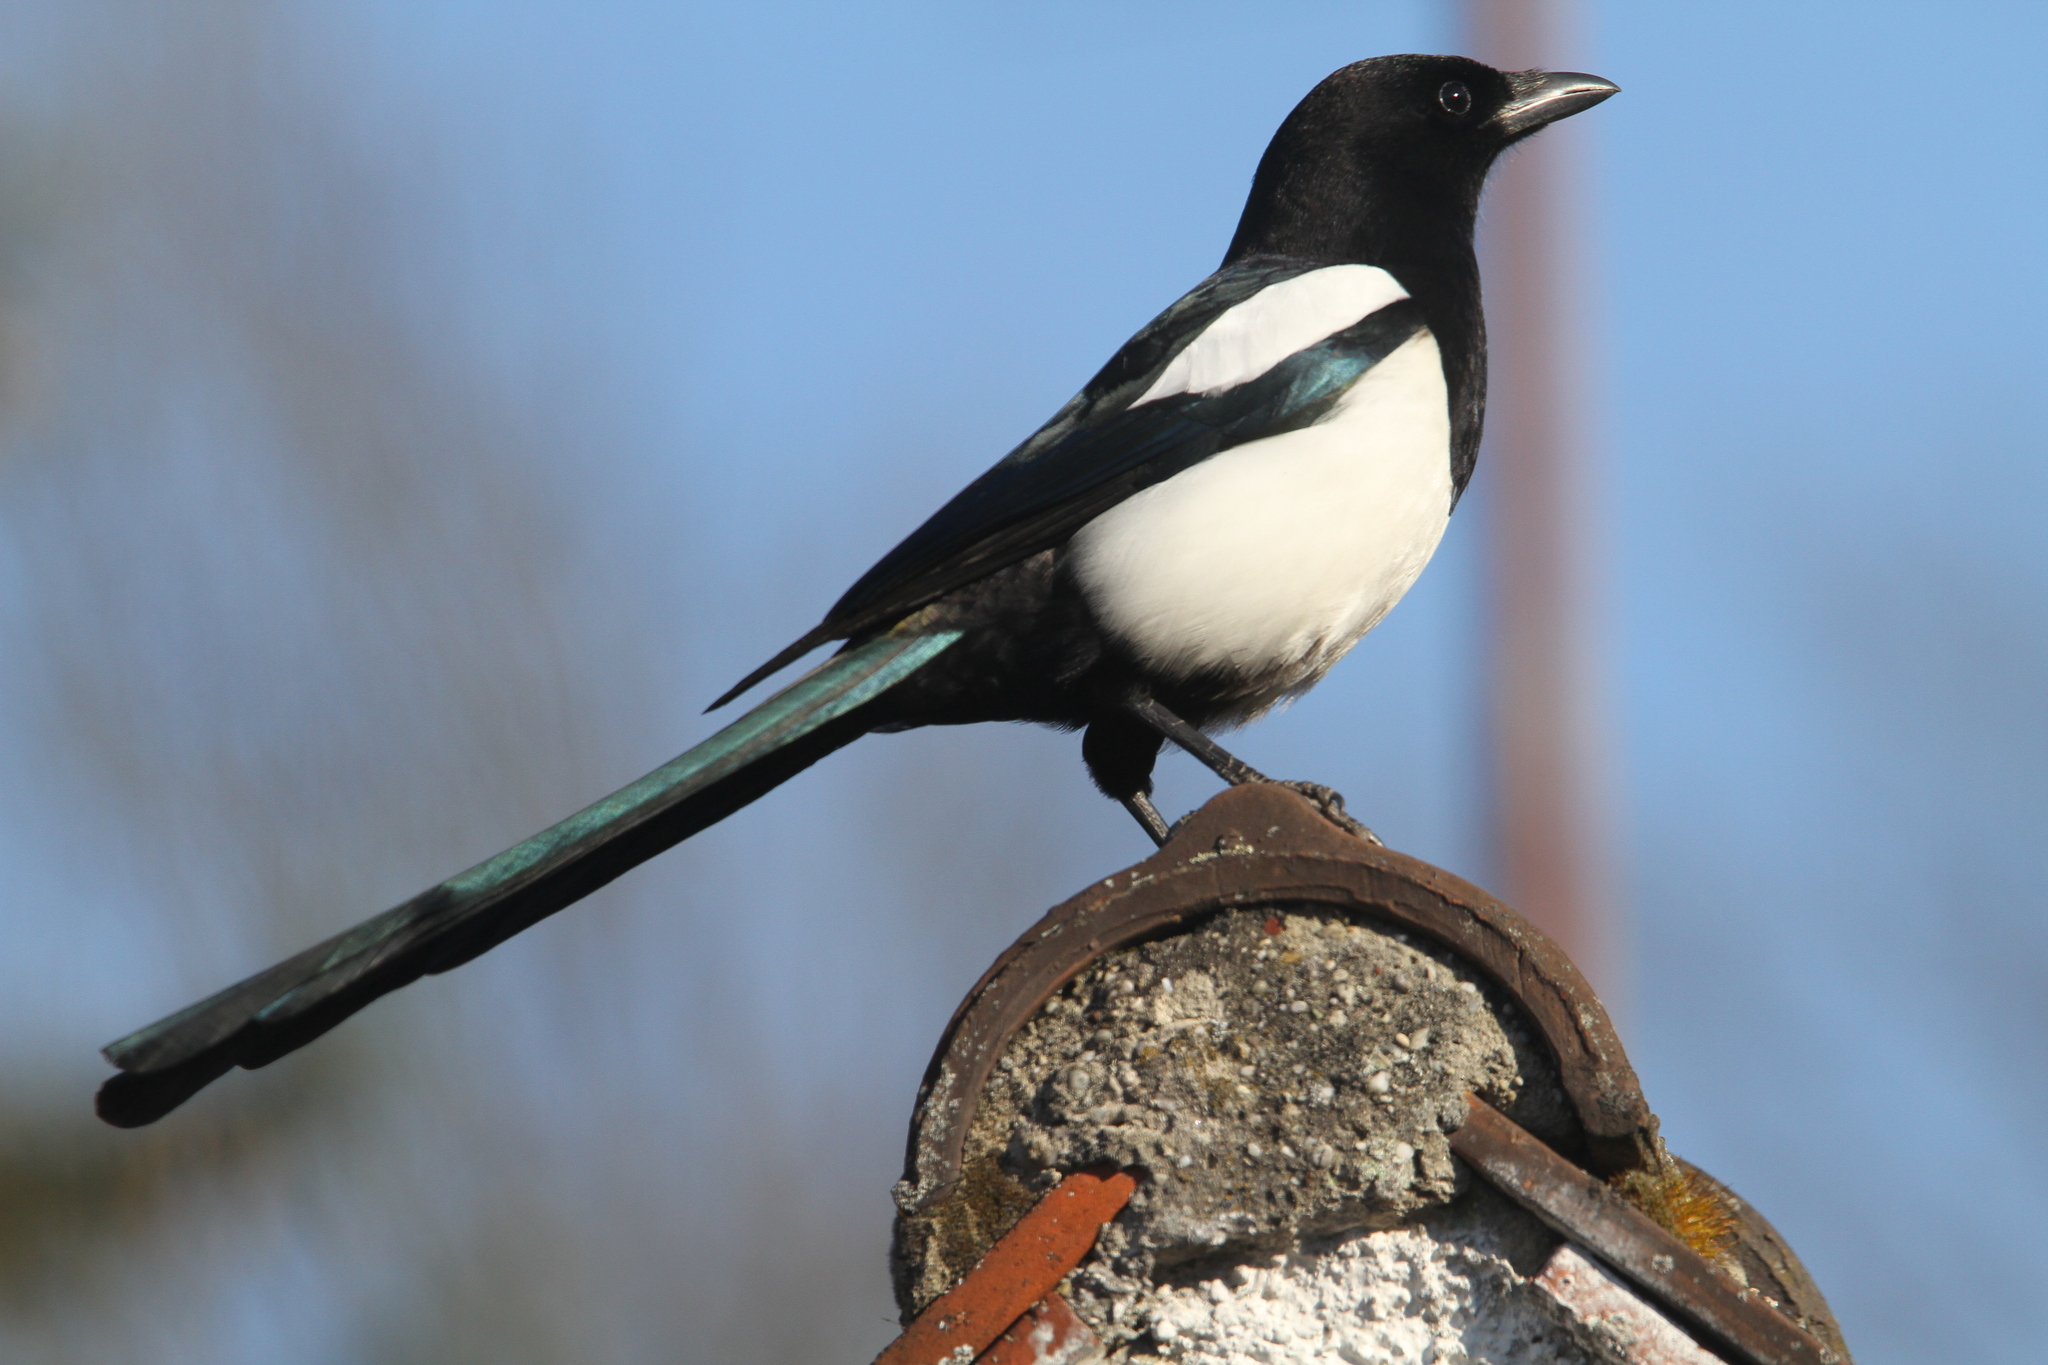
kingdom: Animalia
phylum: Chordata
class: Aves
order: Passeriformes
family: Corvidae
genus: Pica
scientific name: Pica pica
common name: Eurasian magpie
